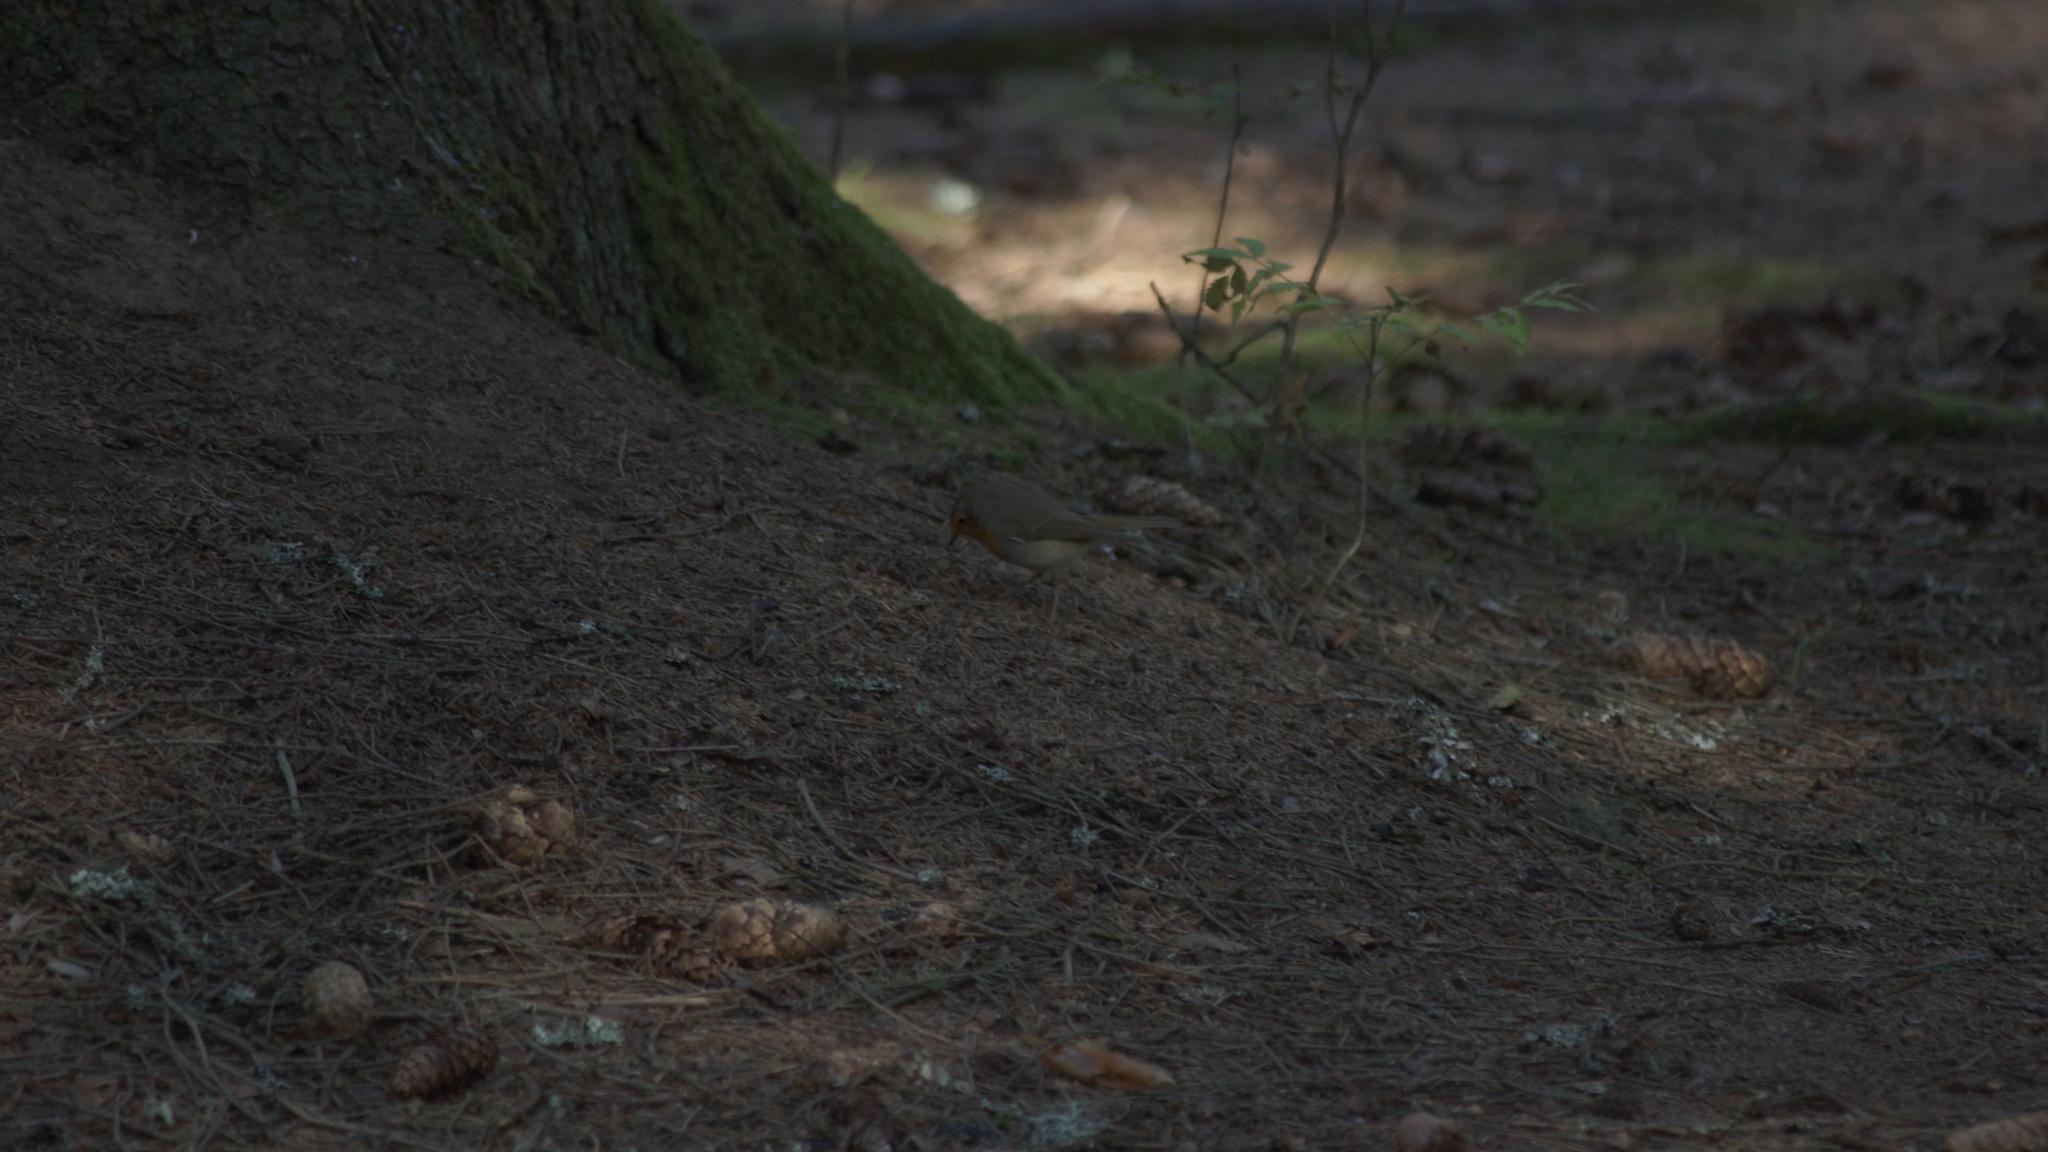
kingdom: Animalia
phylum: Chordata
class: Aves
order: Passeriformes
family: Muscicapidae
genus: Erithacus
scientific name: Erithacus rubecula
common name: European robin
